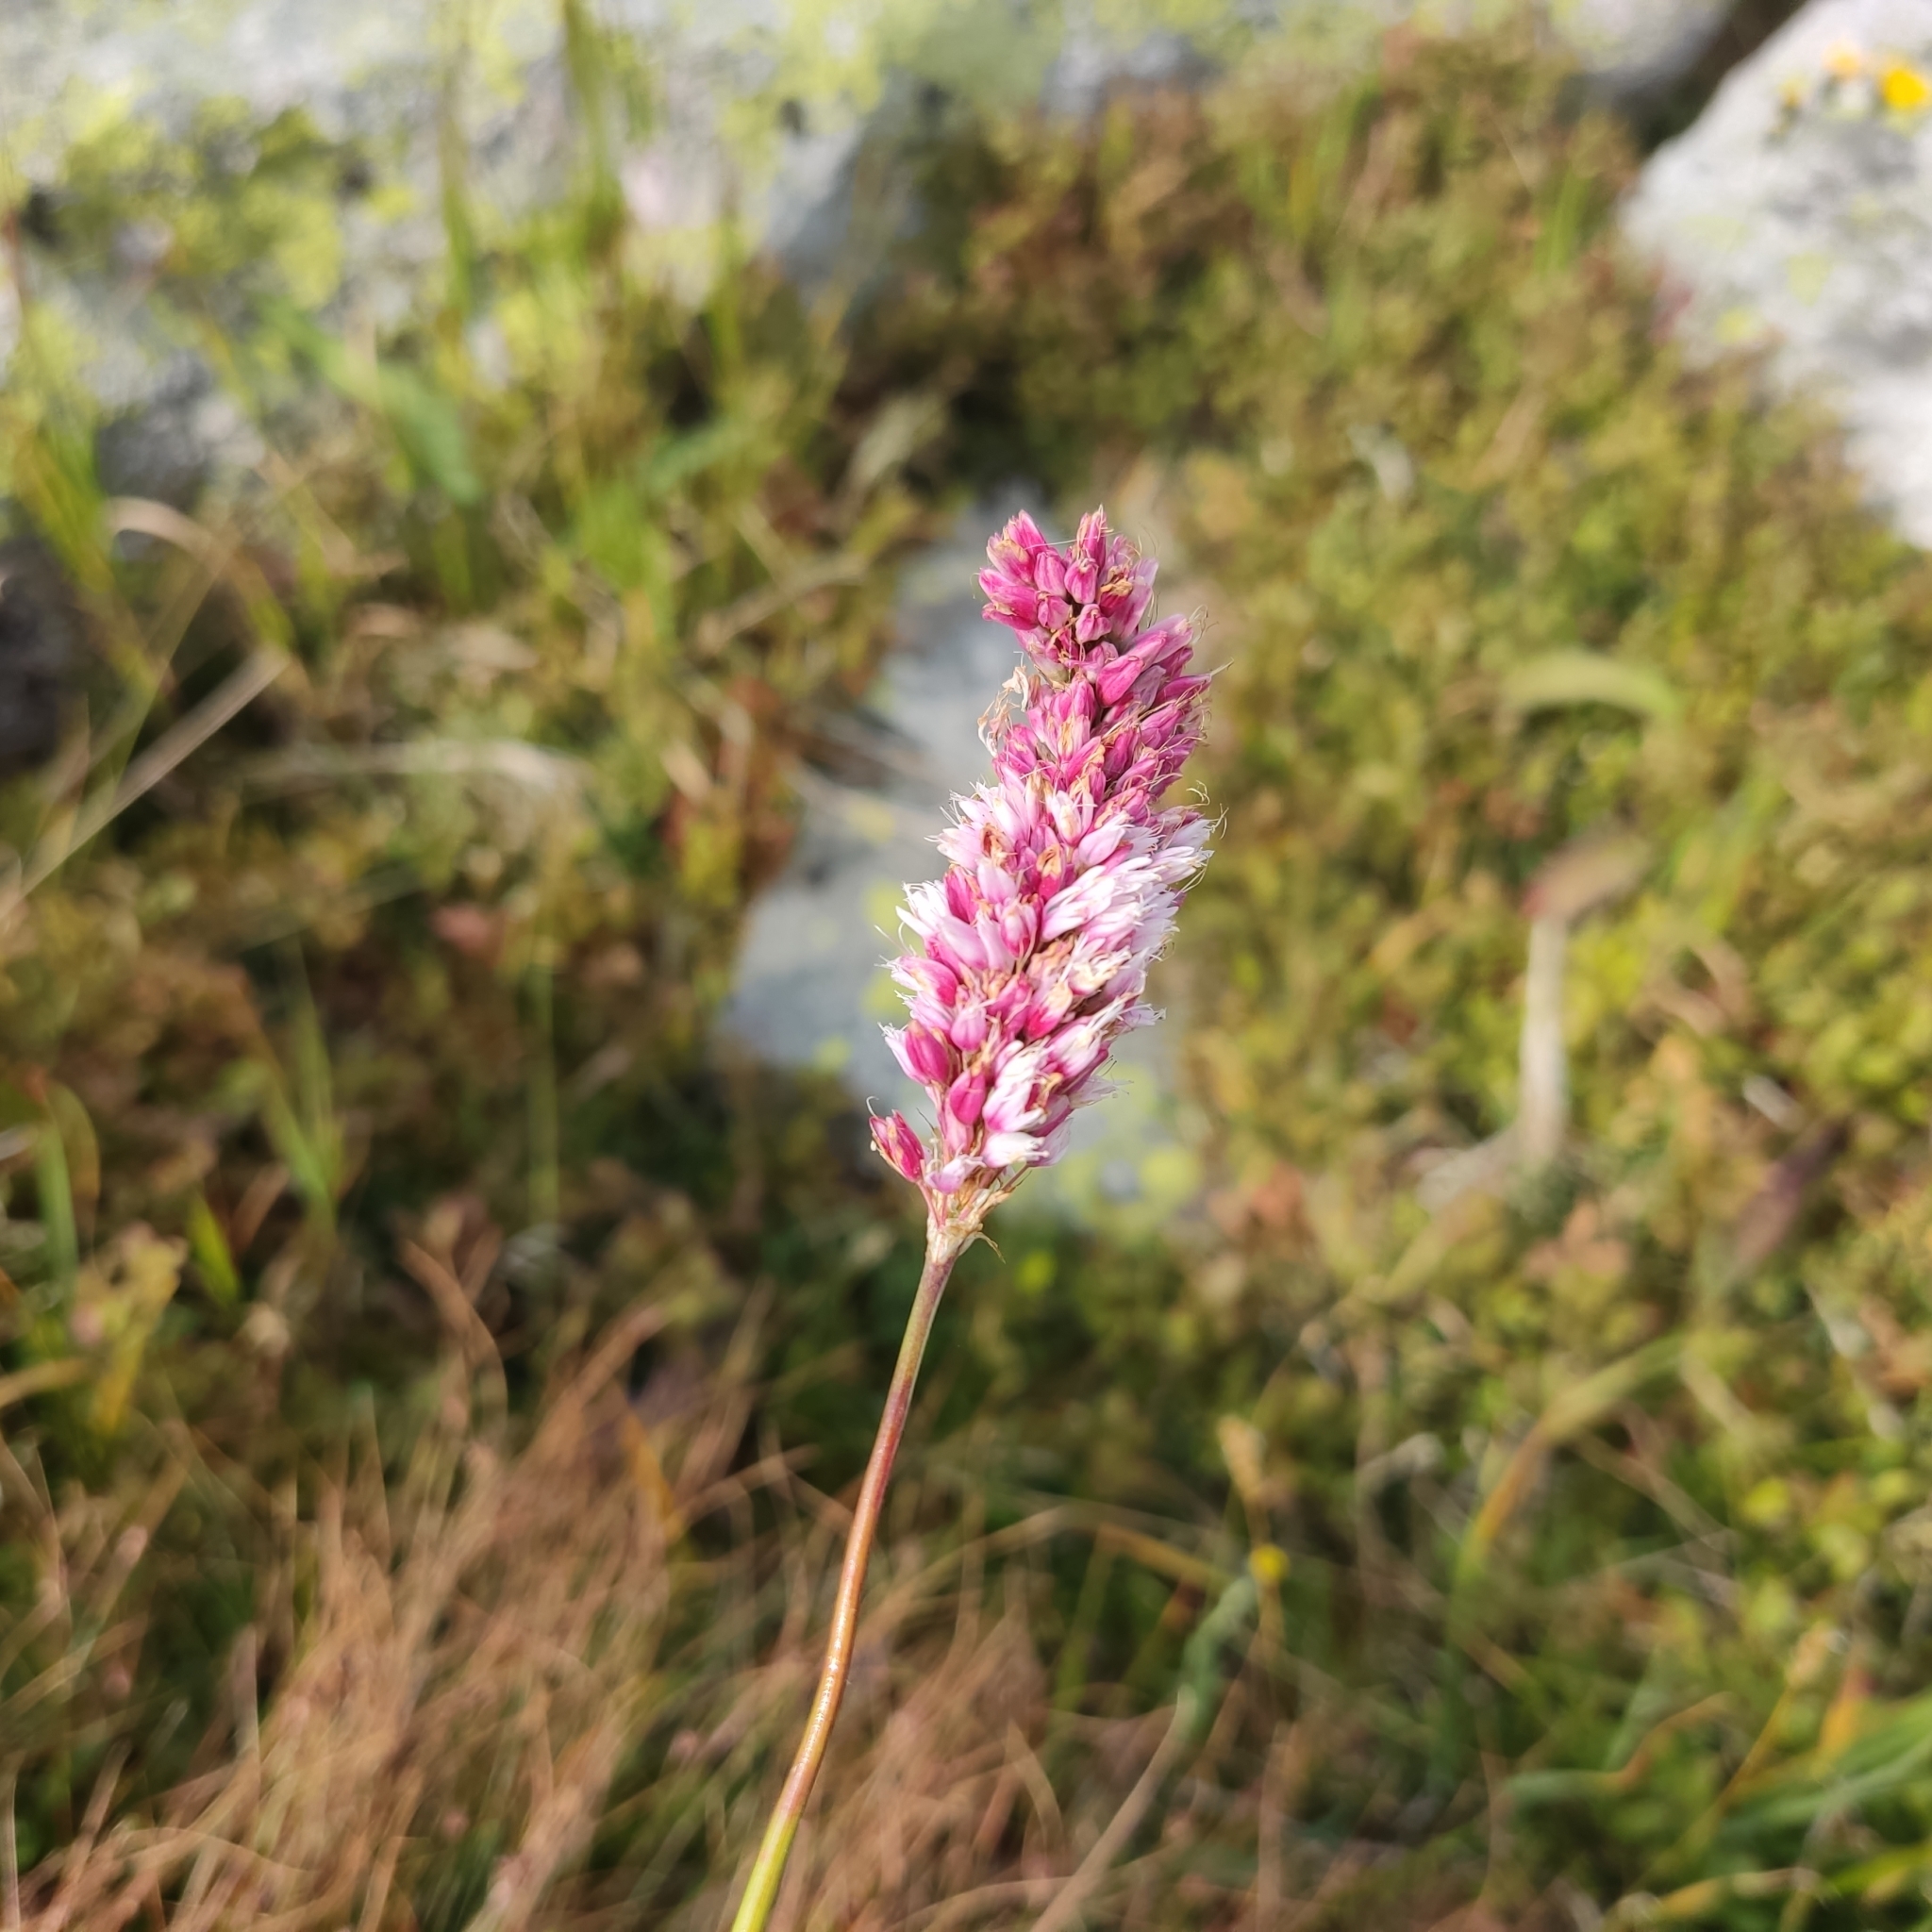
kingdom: Plantae
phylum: Tracheophyta
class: Magnoliopsida
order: Caryophyllales
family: Polygonaceae
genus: Bistorta
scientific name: Bistorta officinalis
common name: Common bistort
